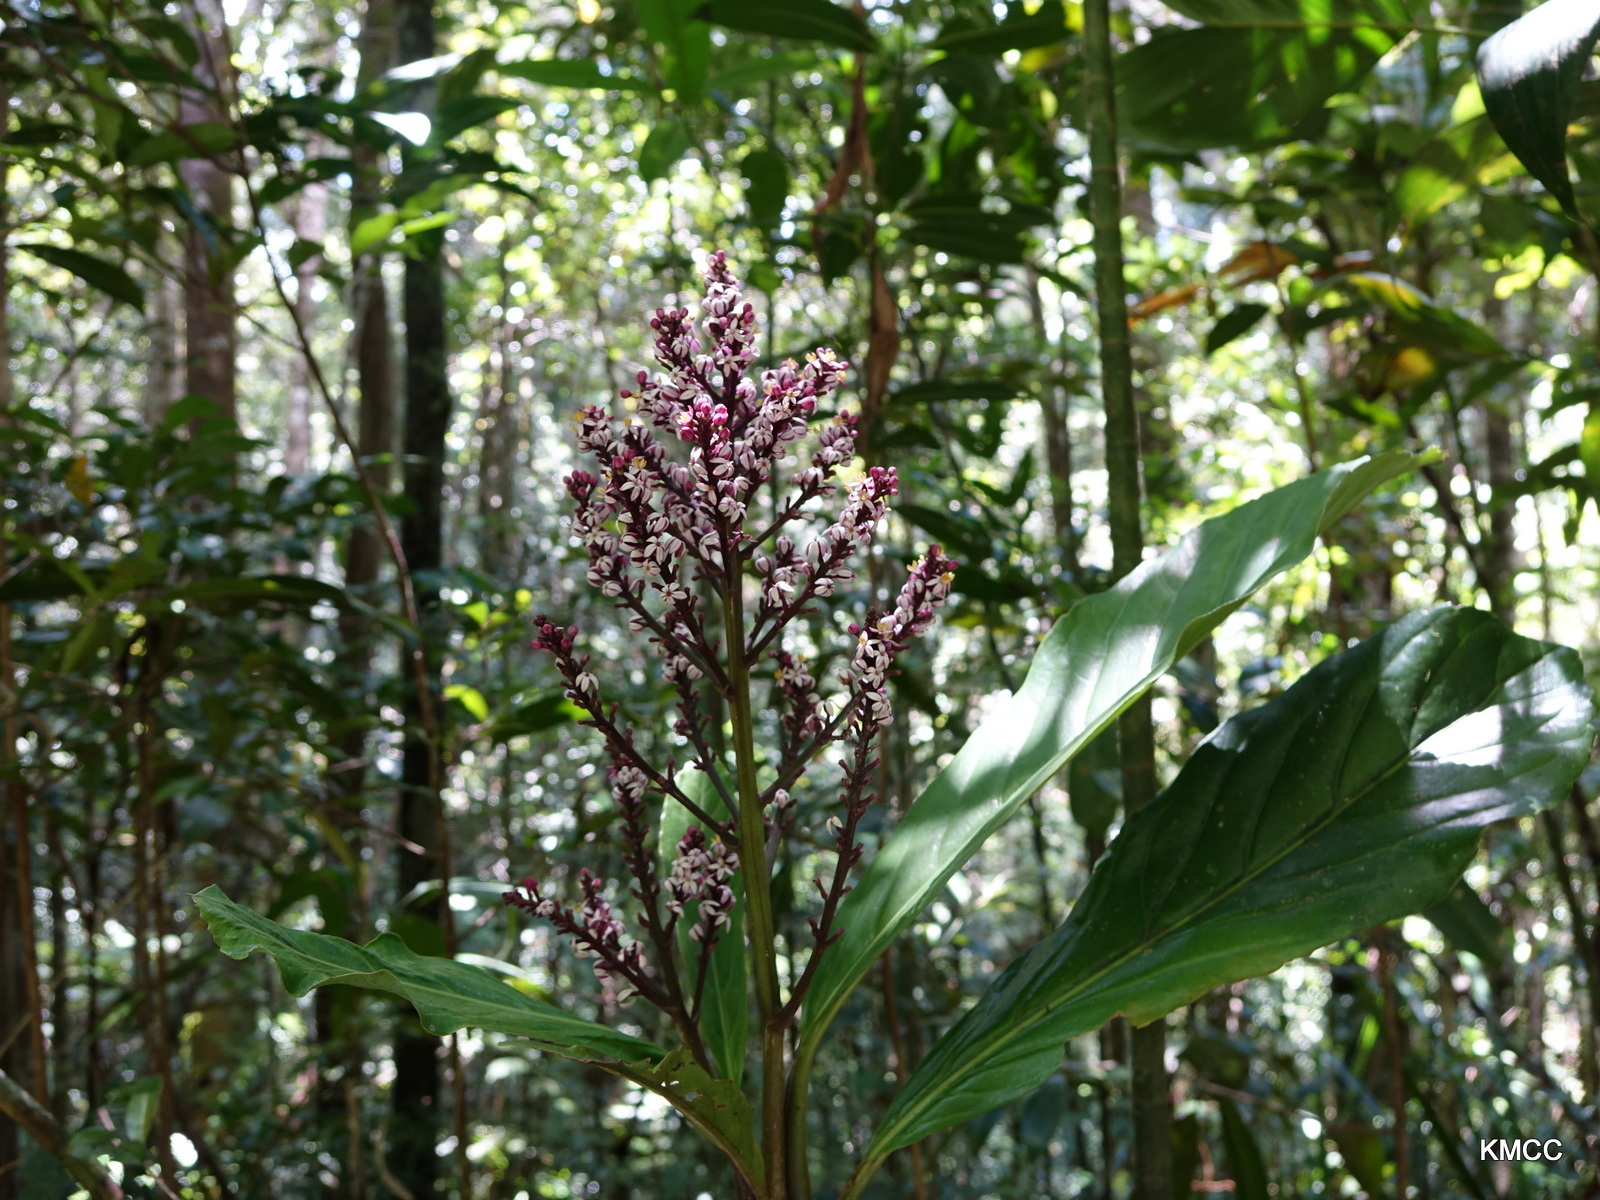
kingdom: Plantae
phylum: Tracheophyta
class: Magnoliopsida
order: Apiales
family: Torricelliaceae
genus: Melanophylla
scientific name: Melanophylla modestei
